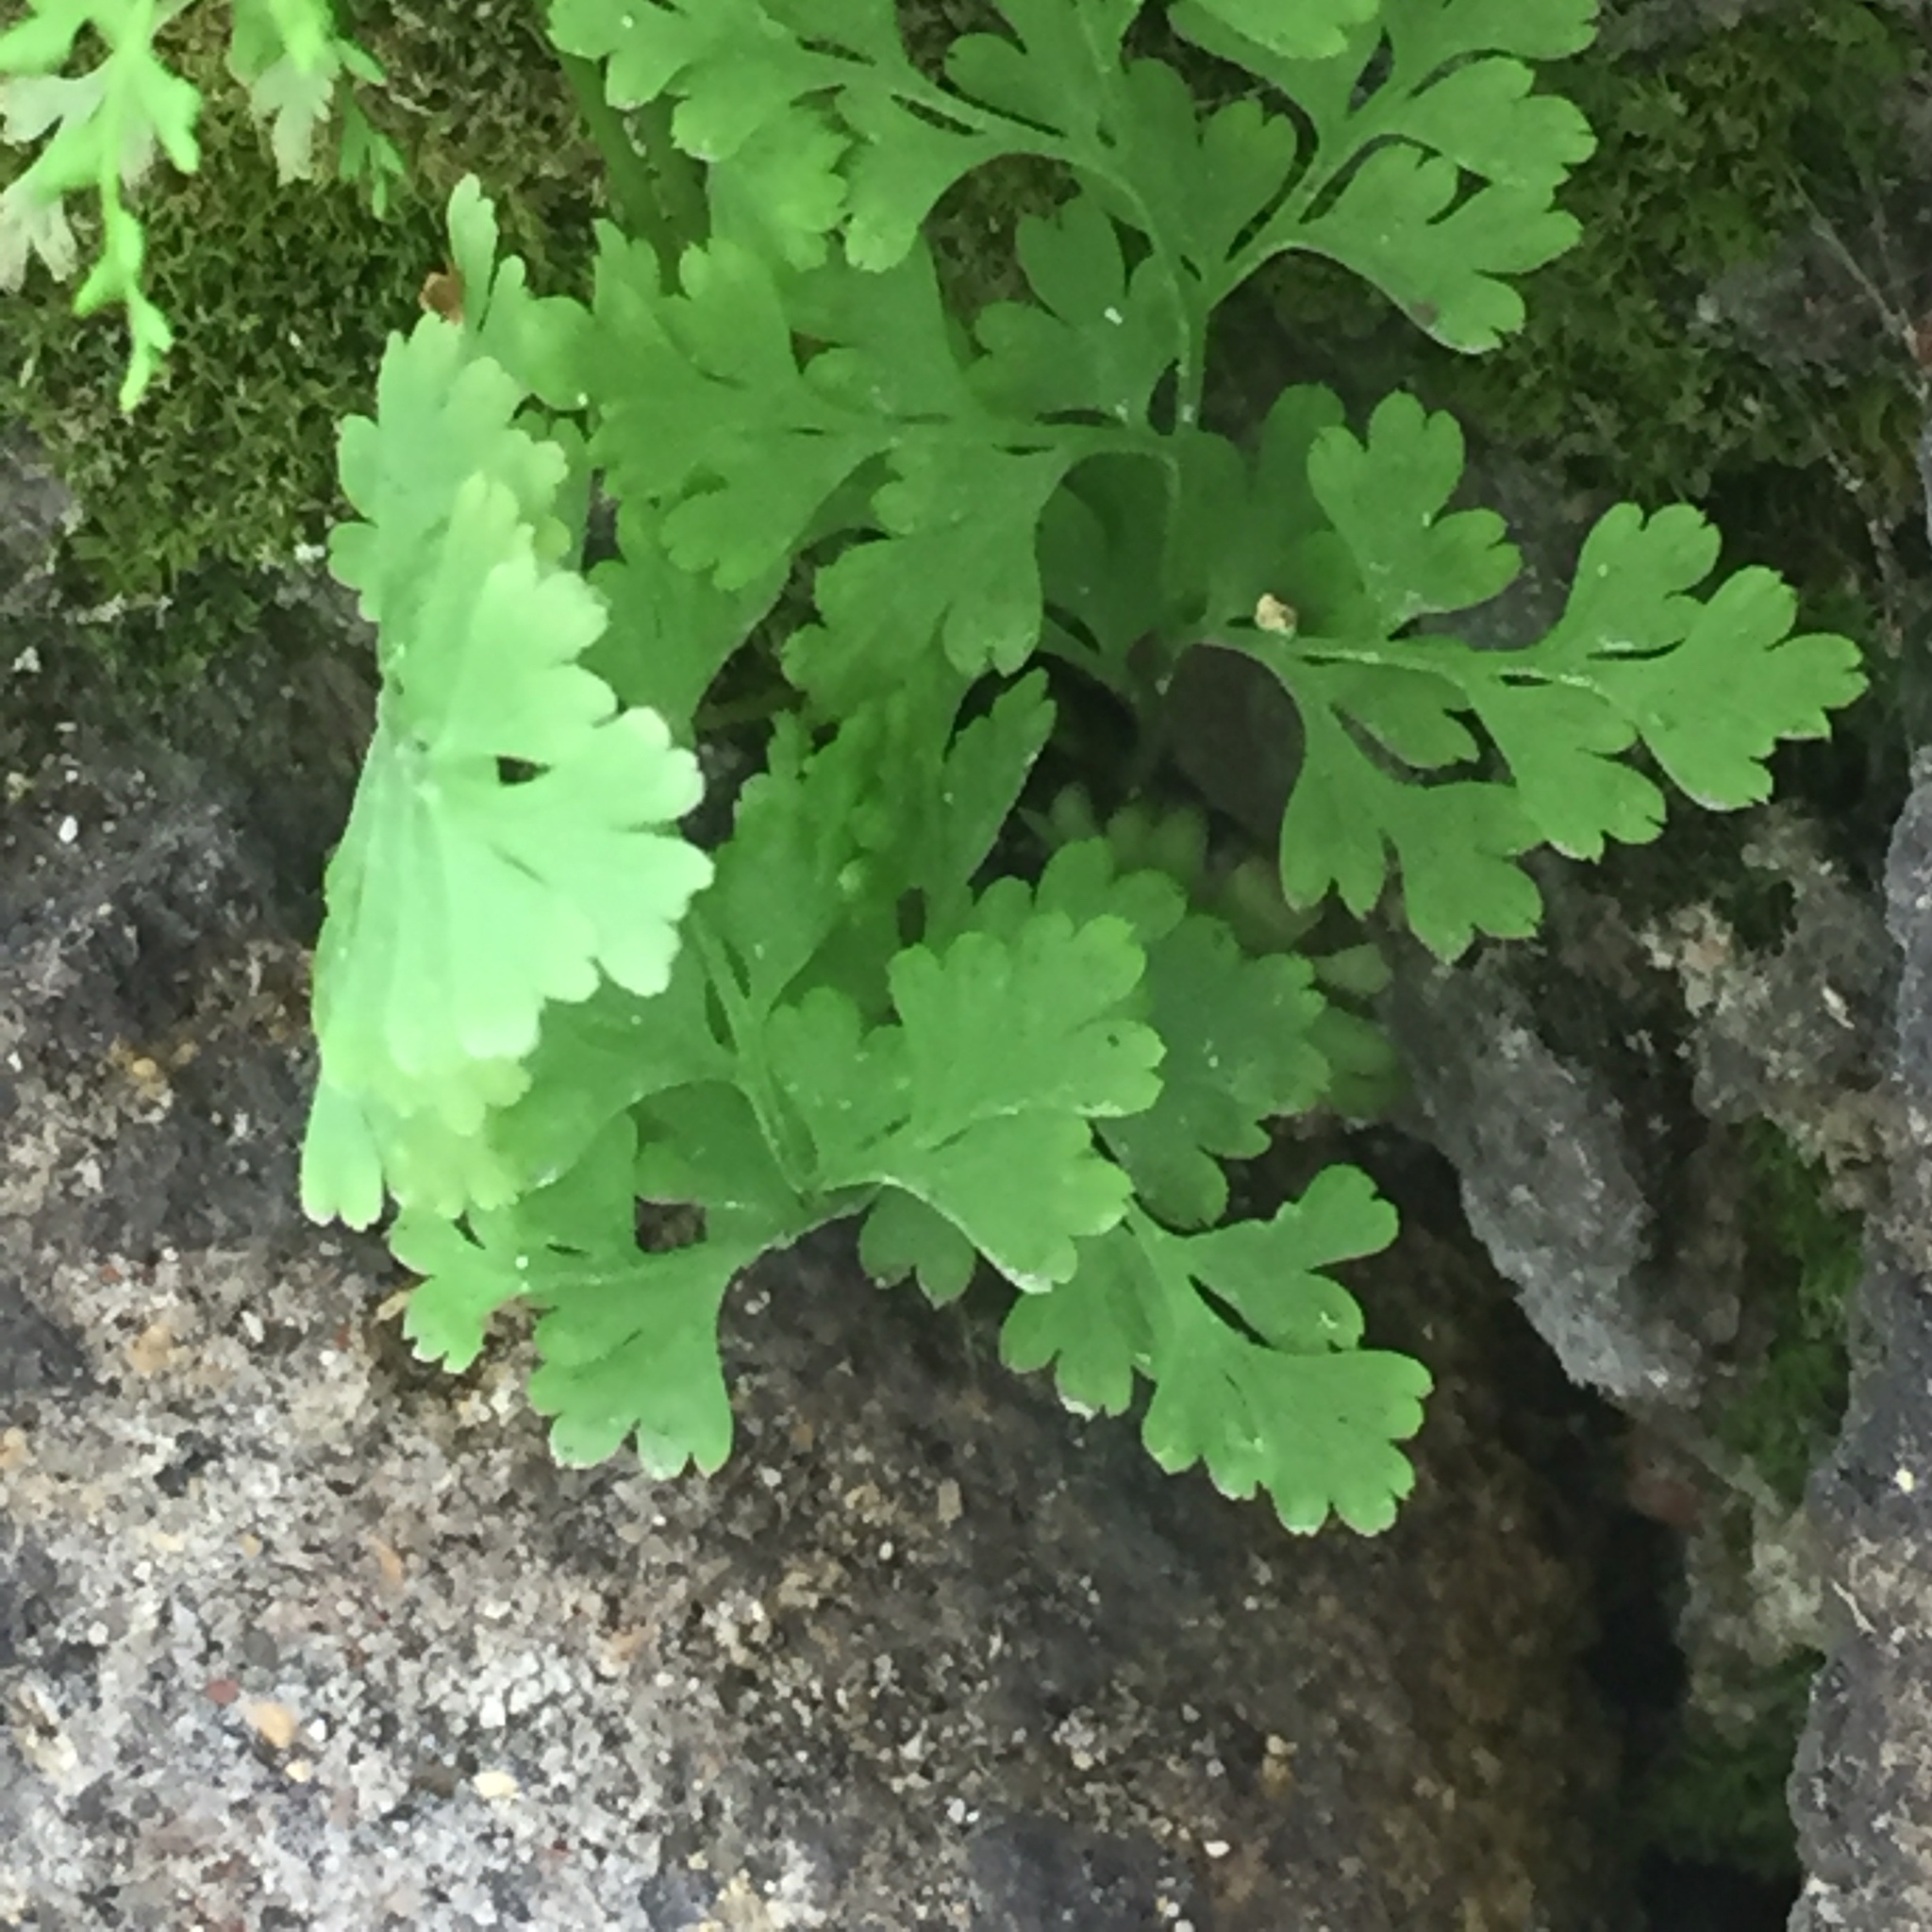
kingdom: Plantae
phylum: Tracheophyta
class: Polypodiopsida
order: Polypodiales
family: Pteridaceae
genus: Anogramma
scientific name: Anogramma leptophylla
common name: Jersey fern
